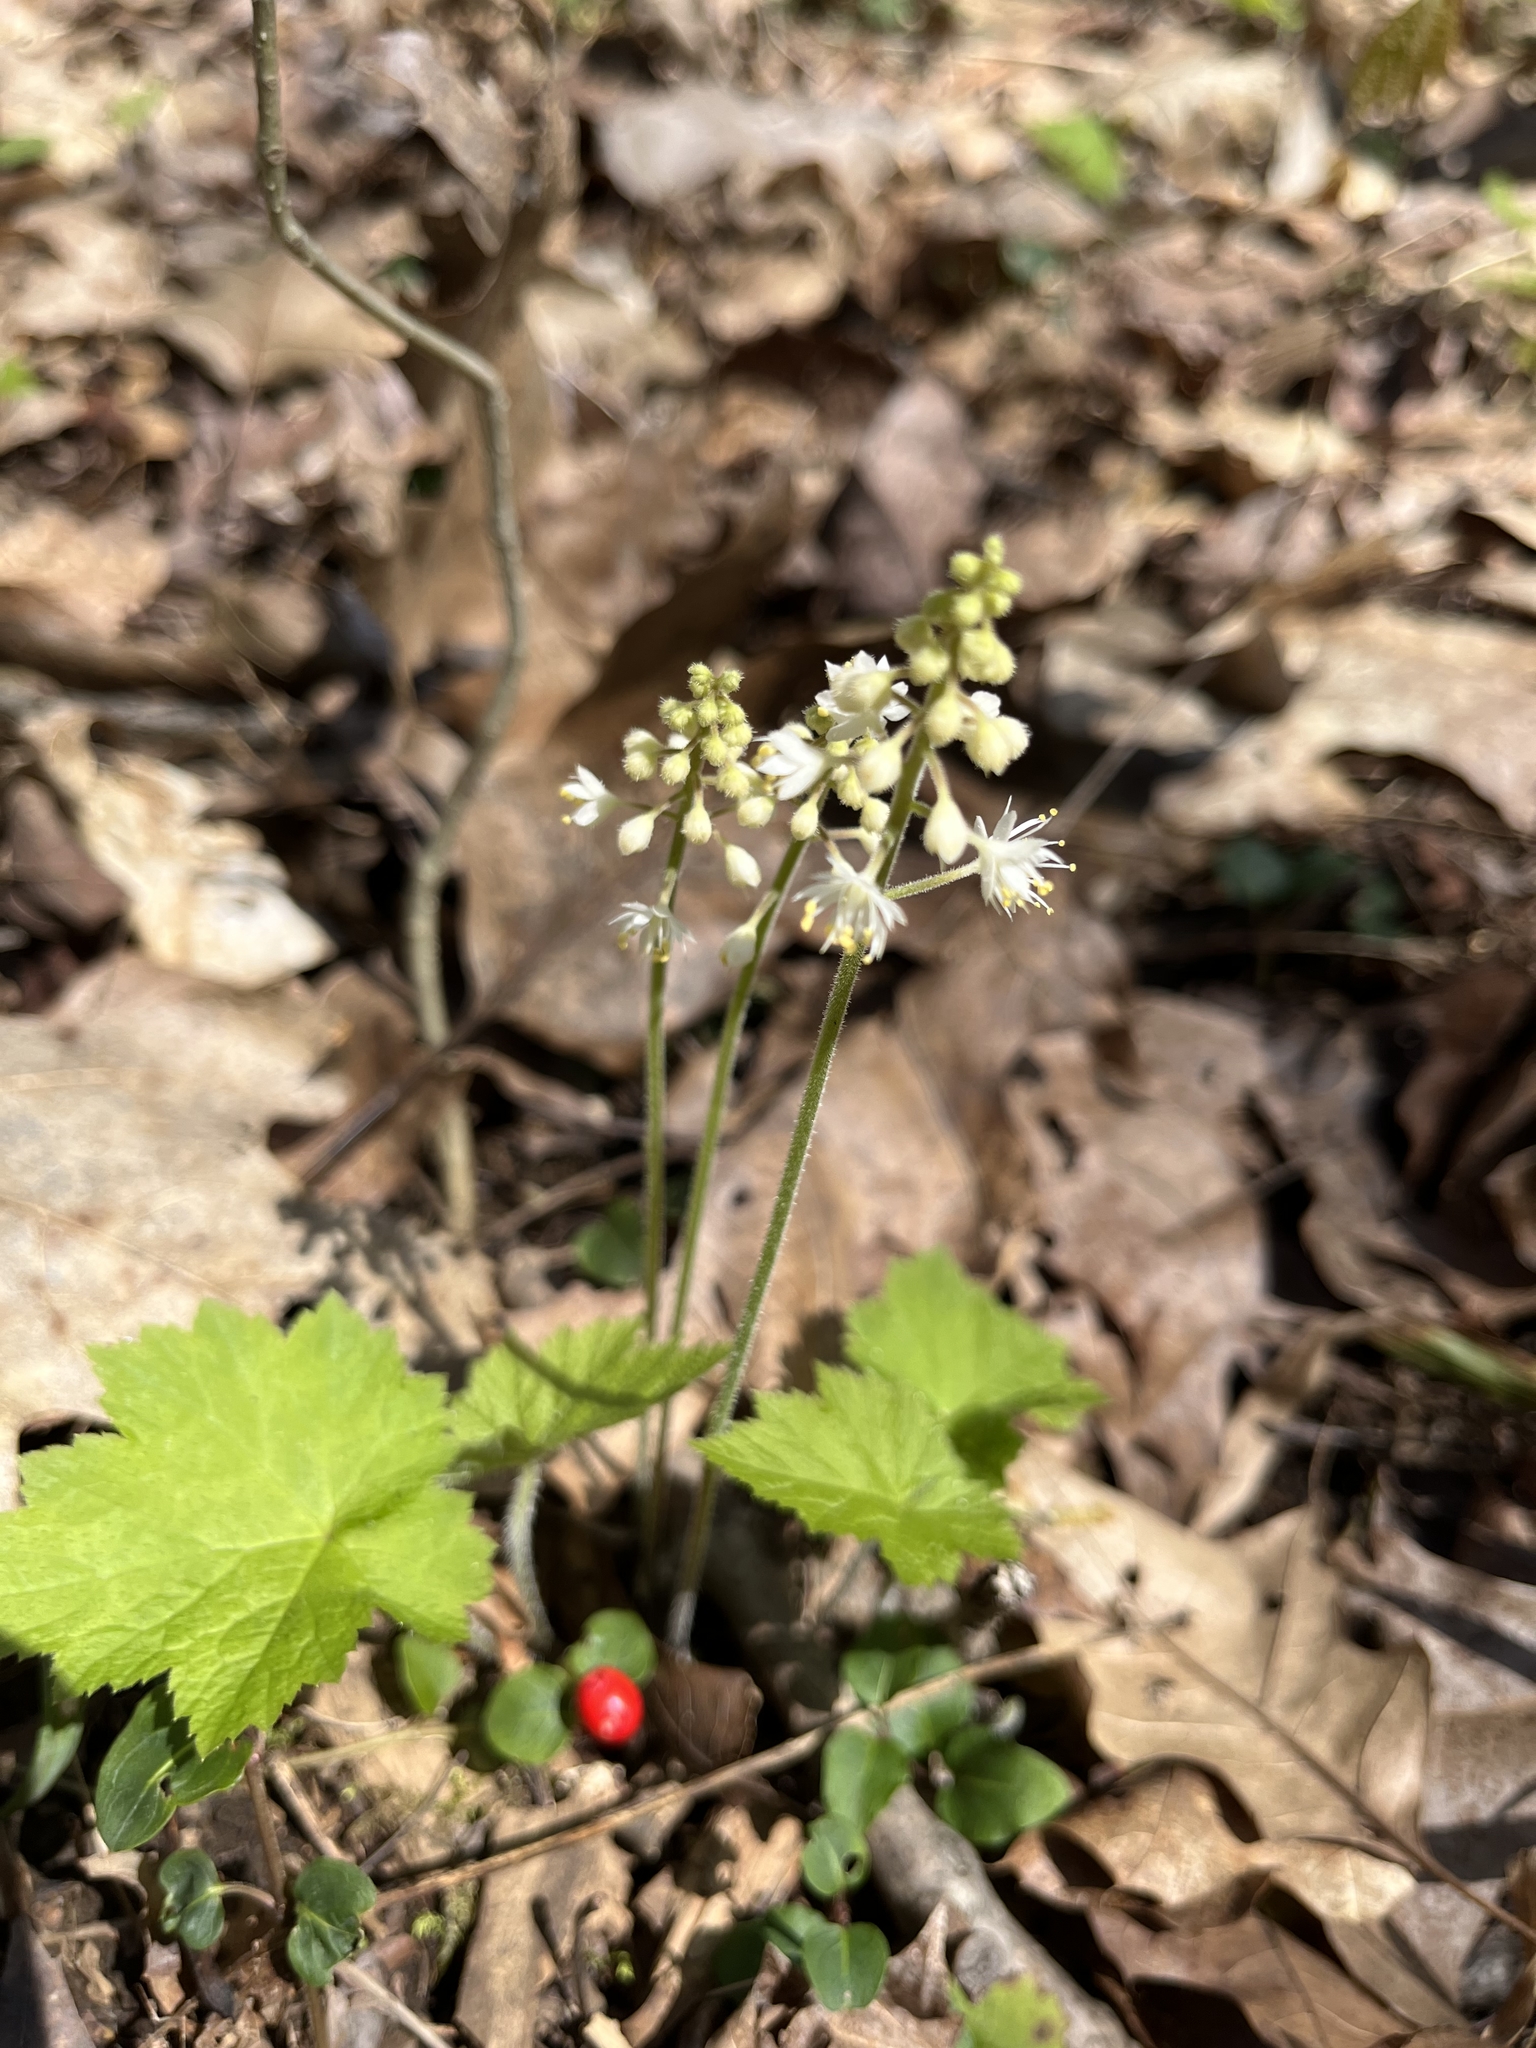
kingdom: Plantae
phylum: Tracheophyta
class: Magnoliopsida
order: Saxifragales
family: Saxifragaceae
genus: Tiarella
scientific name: Tiarella stolonifera
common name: Stoloniferous foamflower
